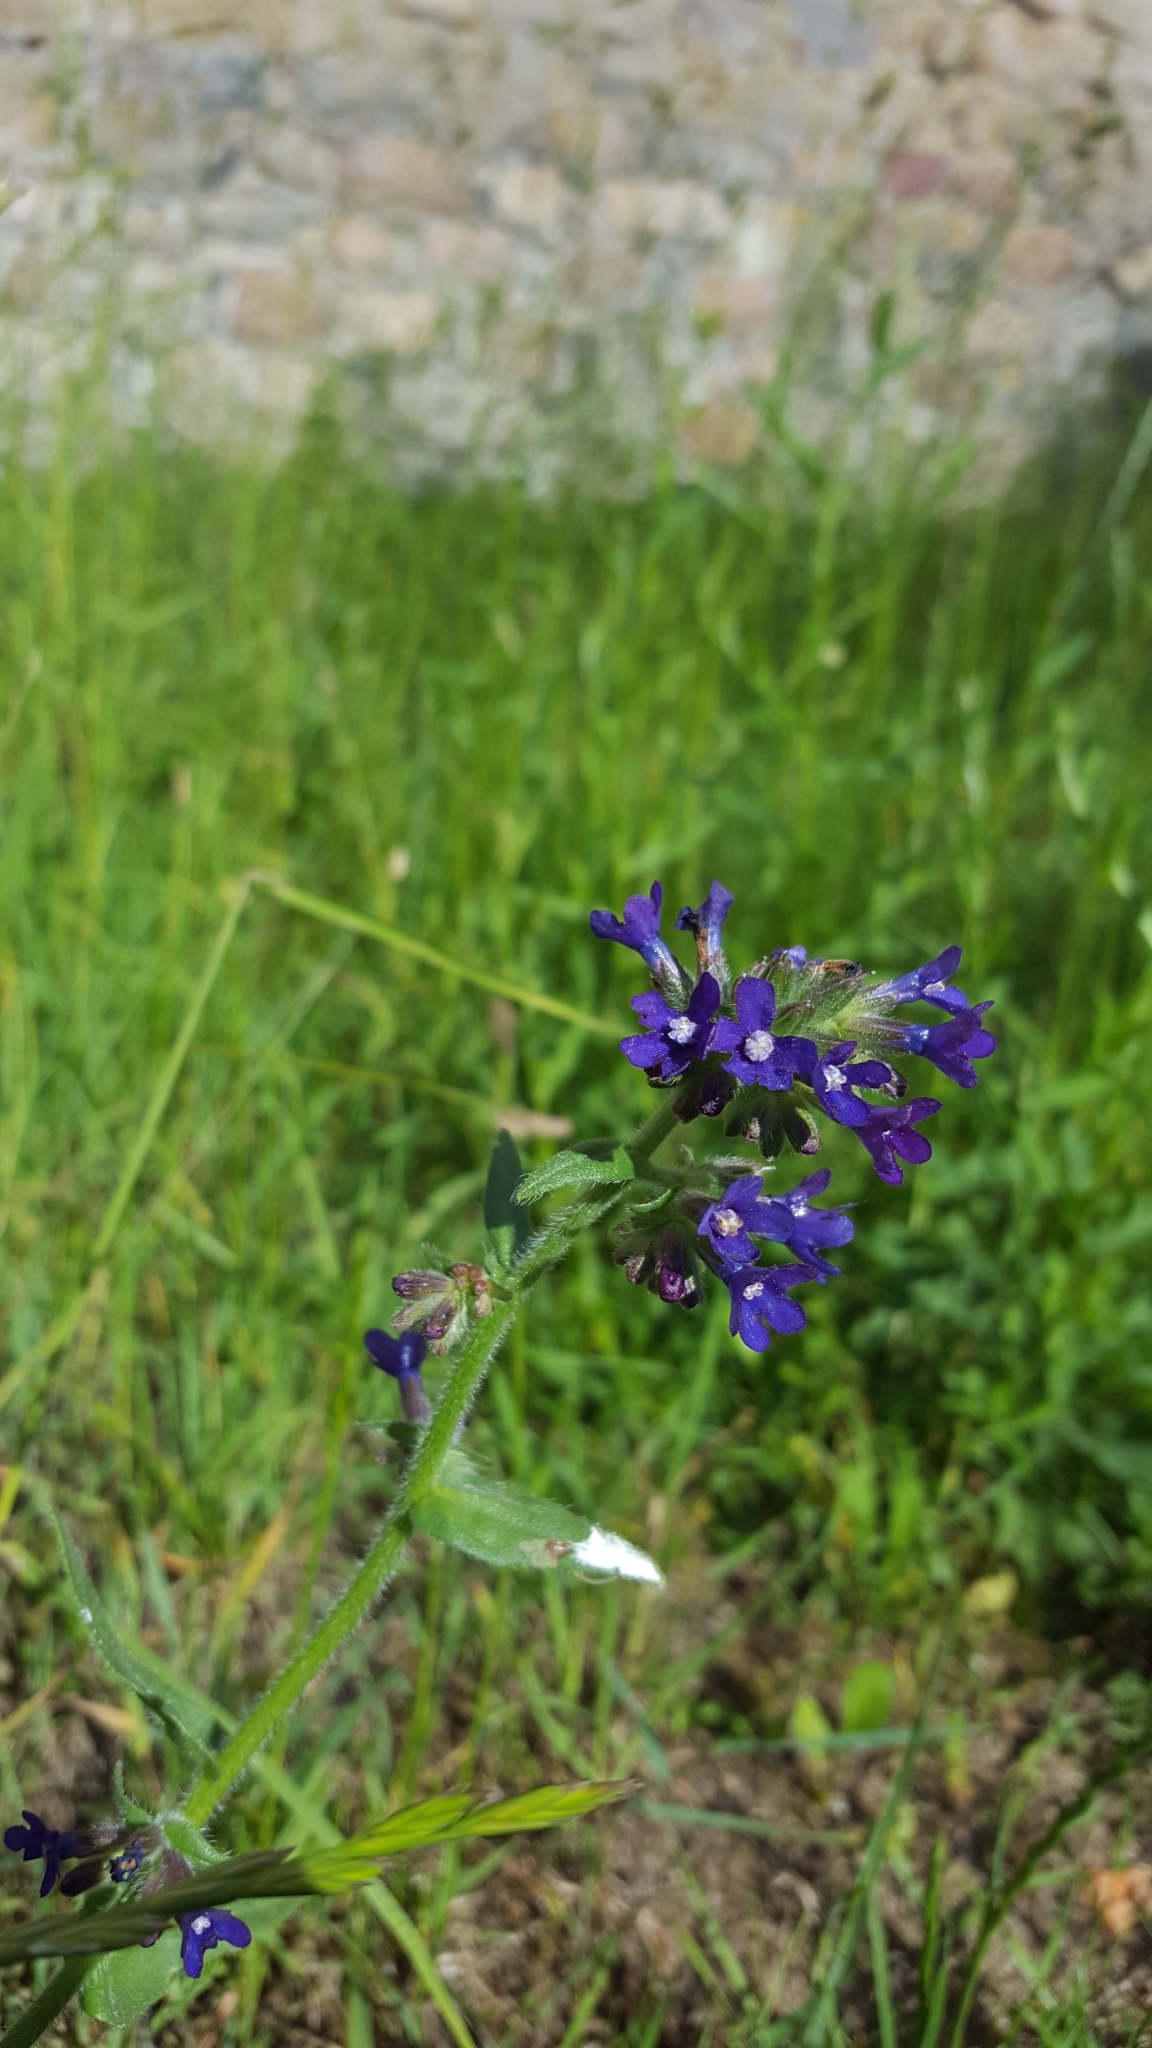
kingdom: Plantae
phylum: Tracheophyta
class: Magnoliopsida
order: Boraginales
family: Boraginaceae
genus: Anchusa
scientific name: Anchusa officinalis
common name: Alkanet
